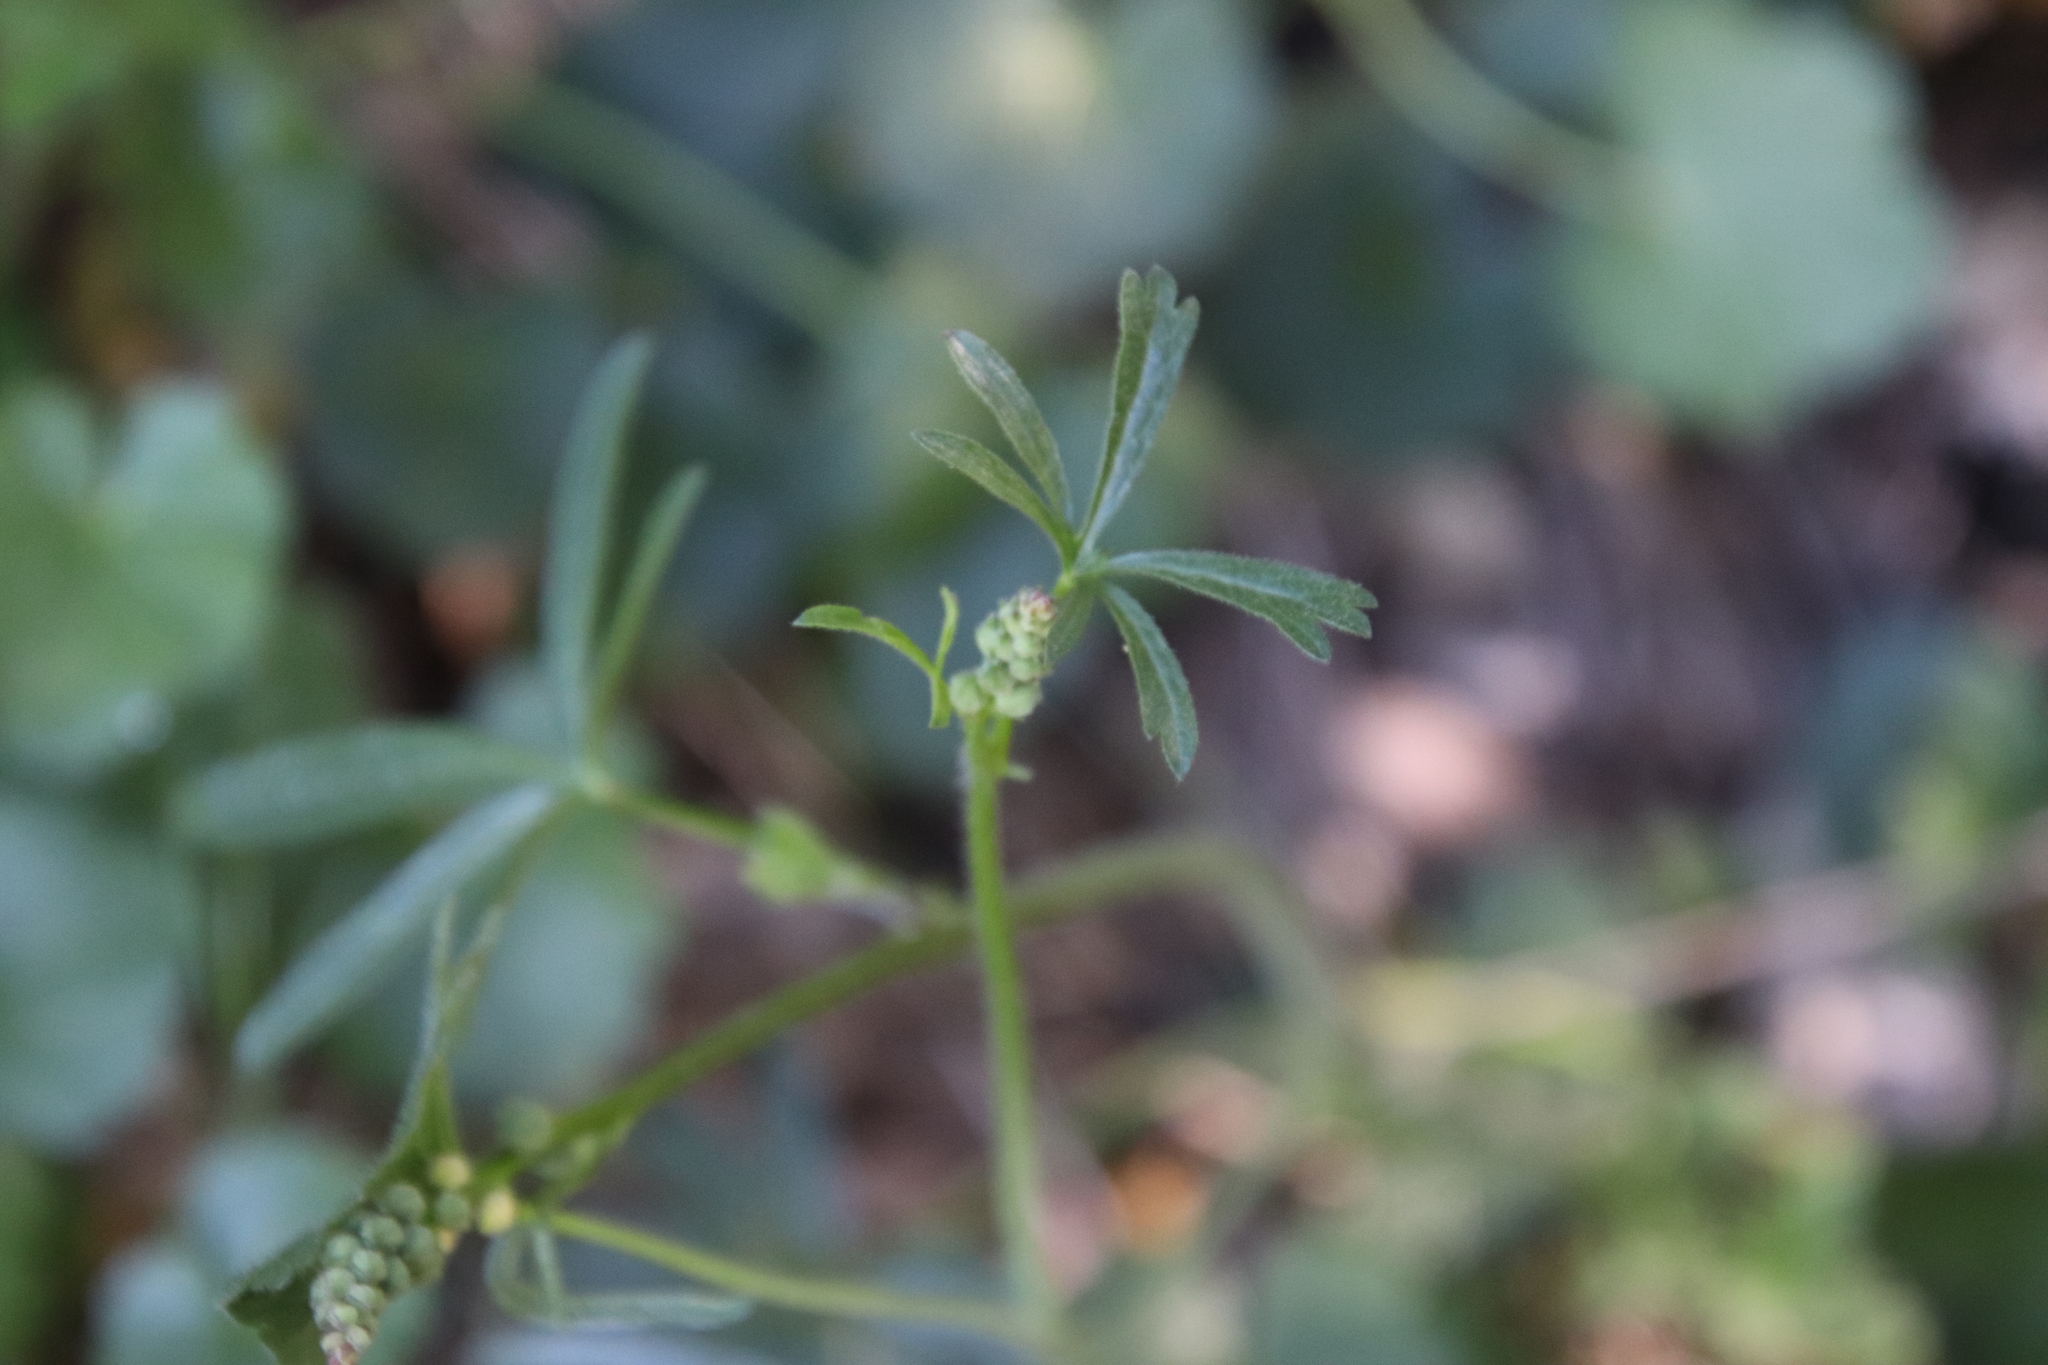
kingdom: Plantae
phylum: Tracheophyta
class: Magnoliopsida
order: Malvales
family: Malvaceae
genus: Sidalcea
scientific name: Sidalcea sparsifolia
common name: Southern checkerbloom
